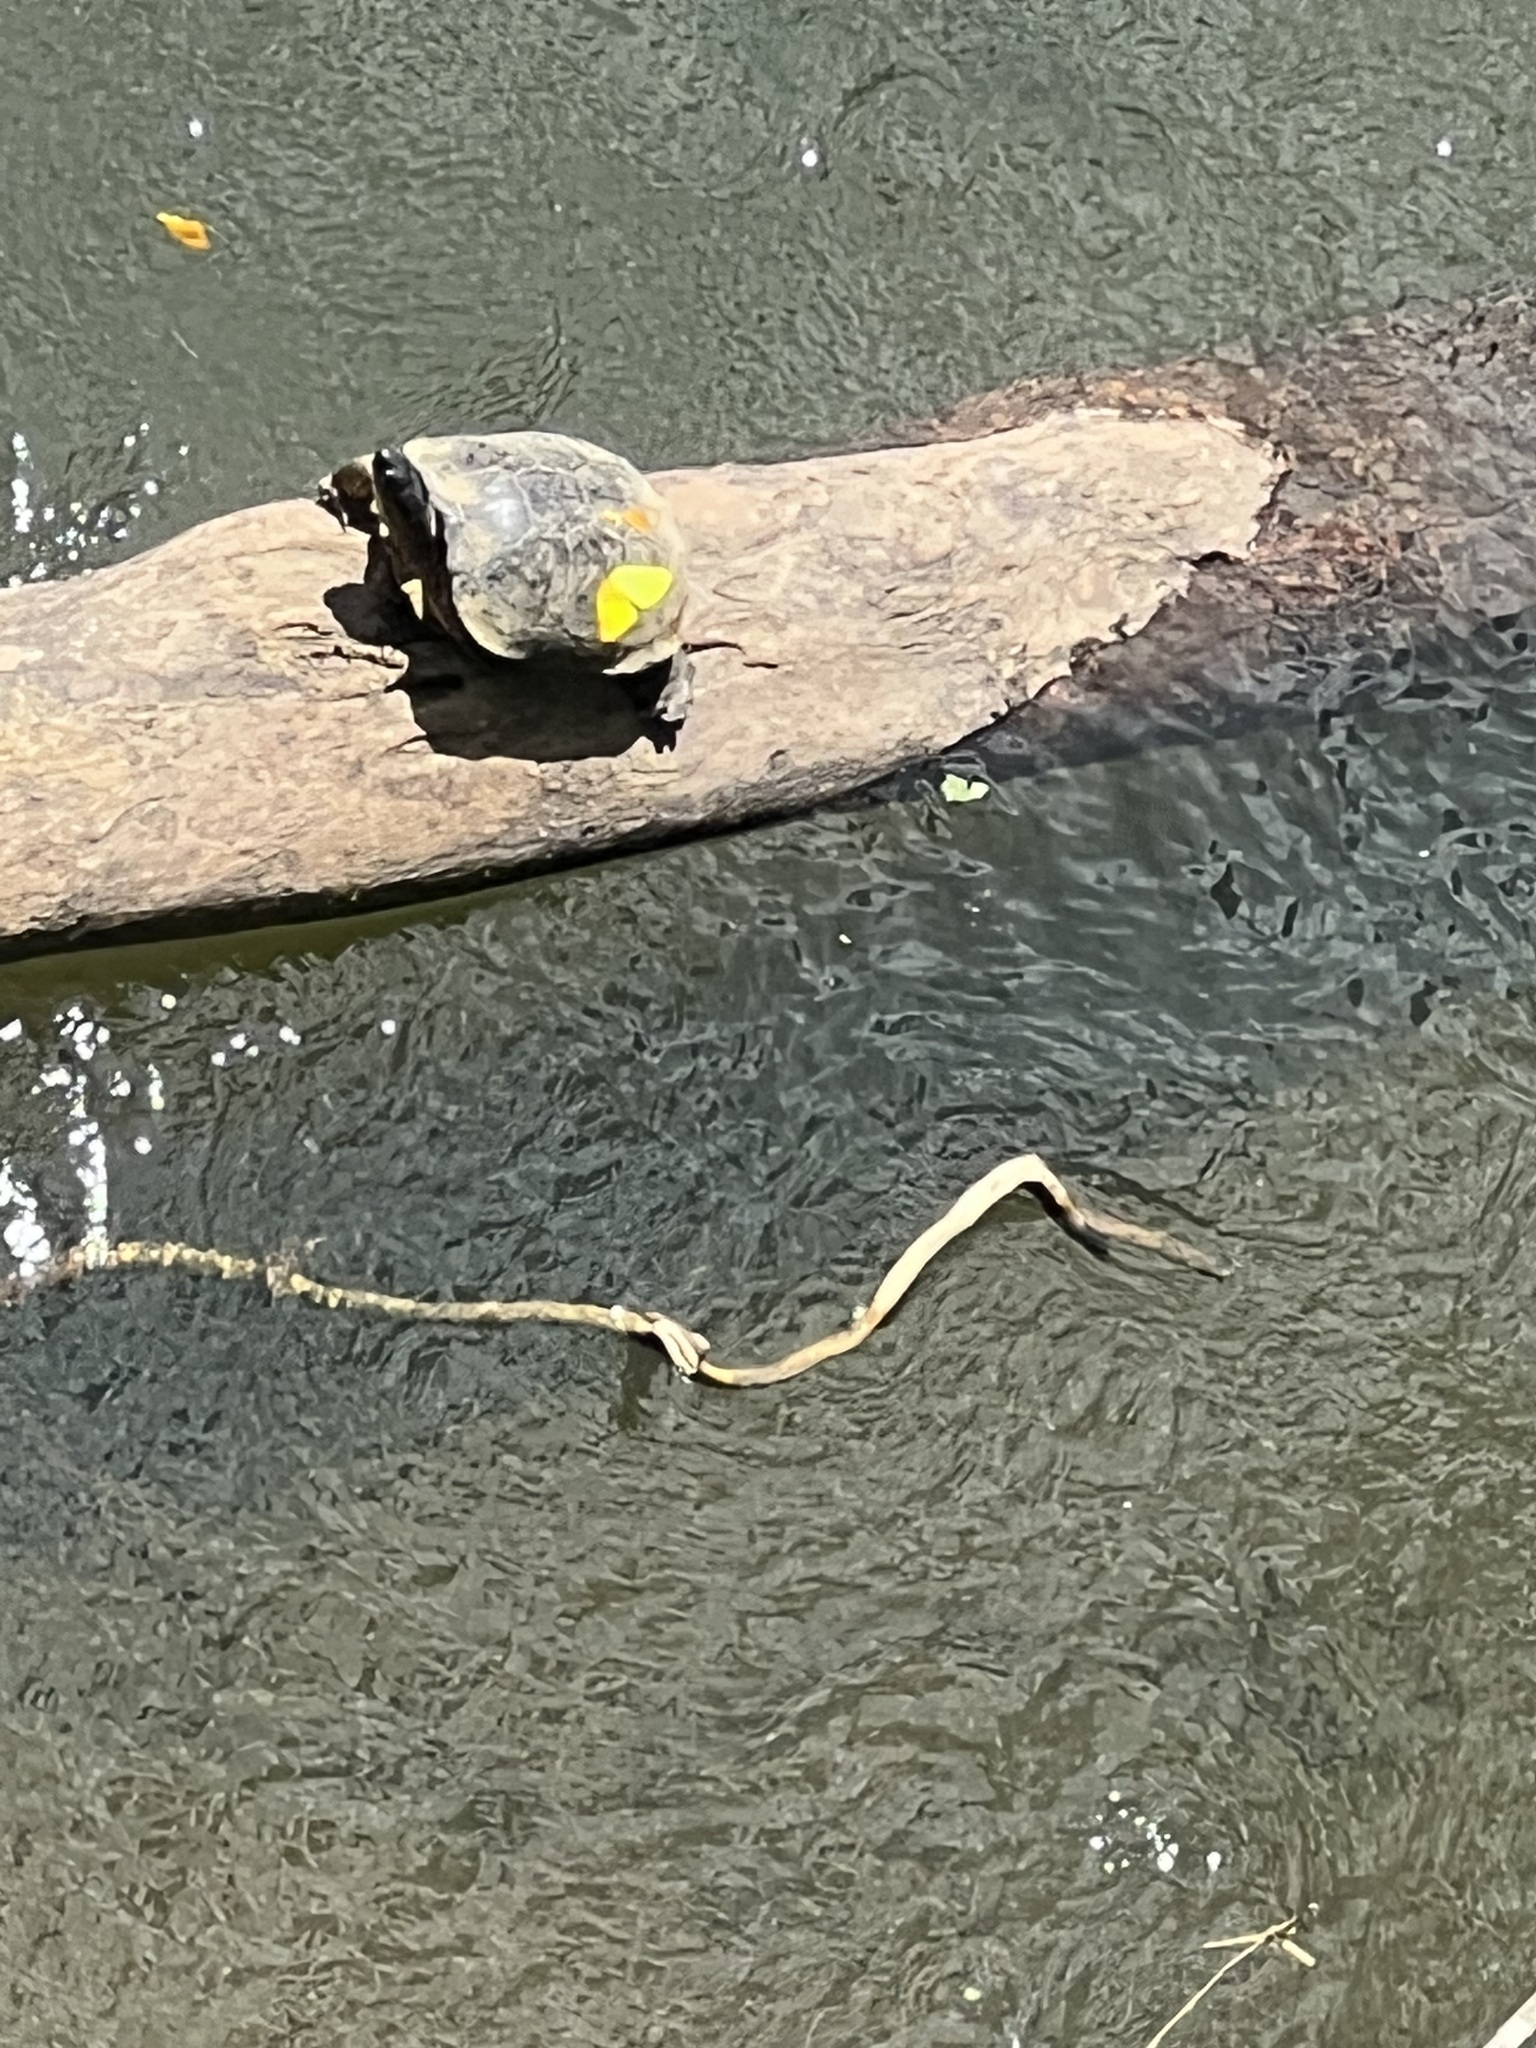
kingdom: Animalia
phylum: Chordata
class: Testudines
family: Geoemydidae
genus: Rhinoclemmys
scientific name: Rhinoclemmys funerea
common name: Black wood turtle
